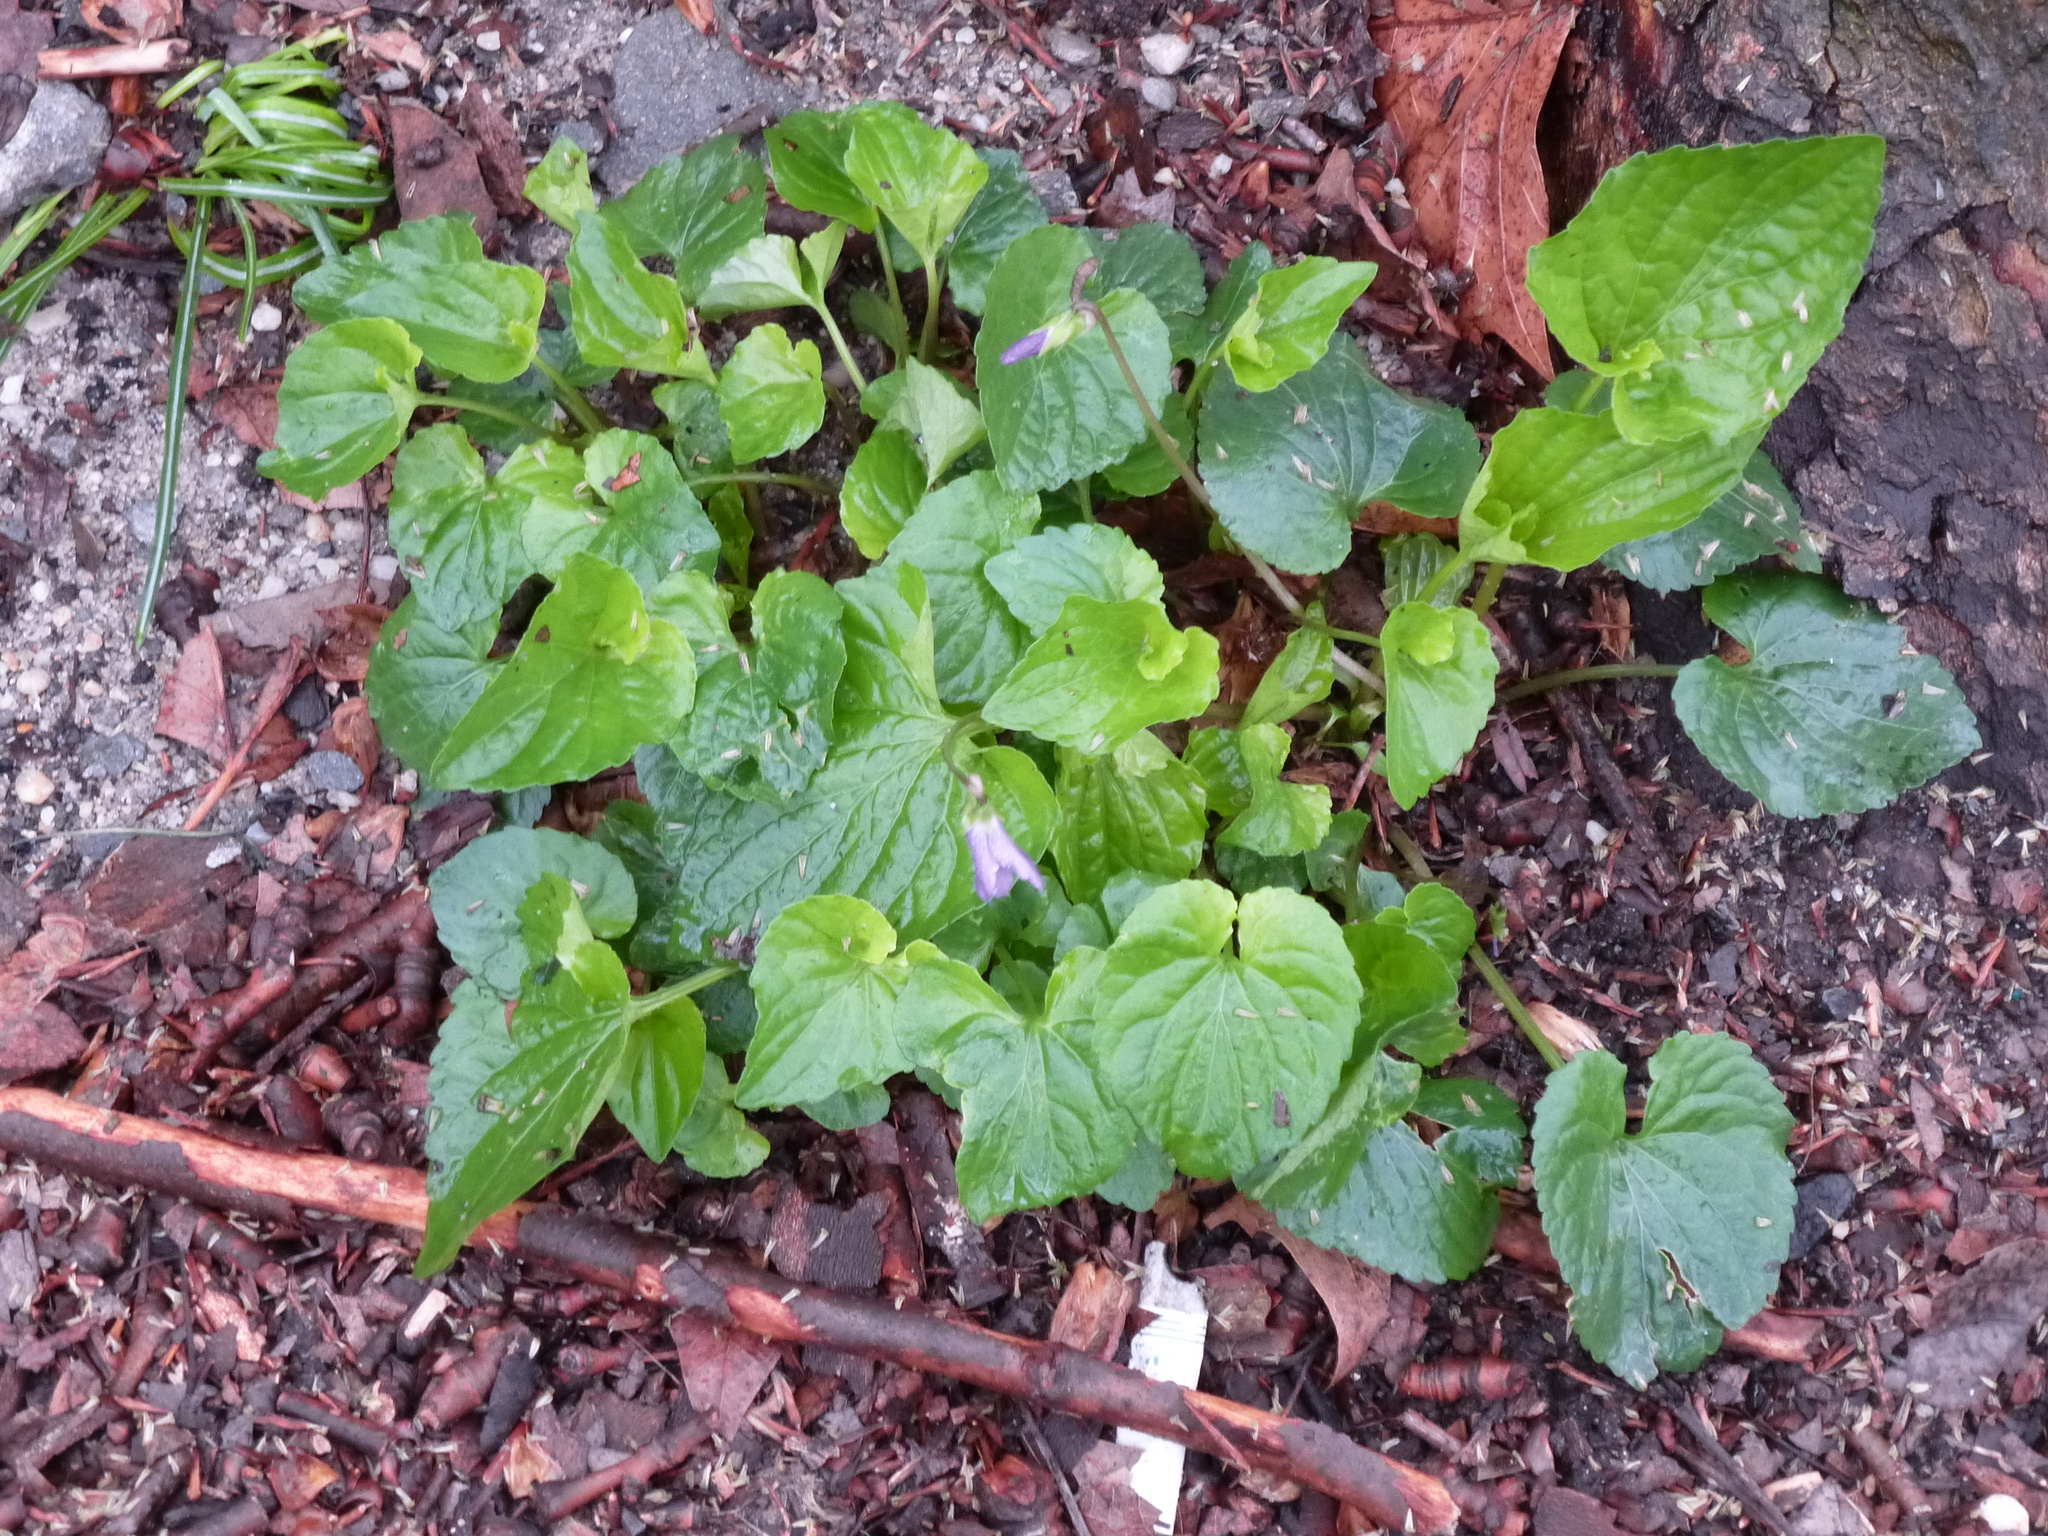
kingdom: Plantae
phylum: Tracheophyta
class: Magnoliopsida
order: Malpighiales
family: Violaceae
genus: Viola
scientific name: Viola sororia
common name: Dooryard violet
